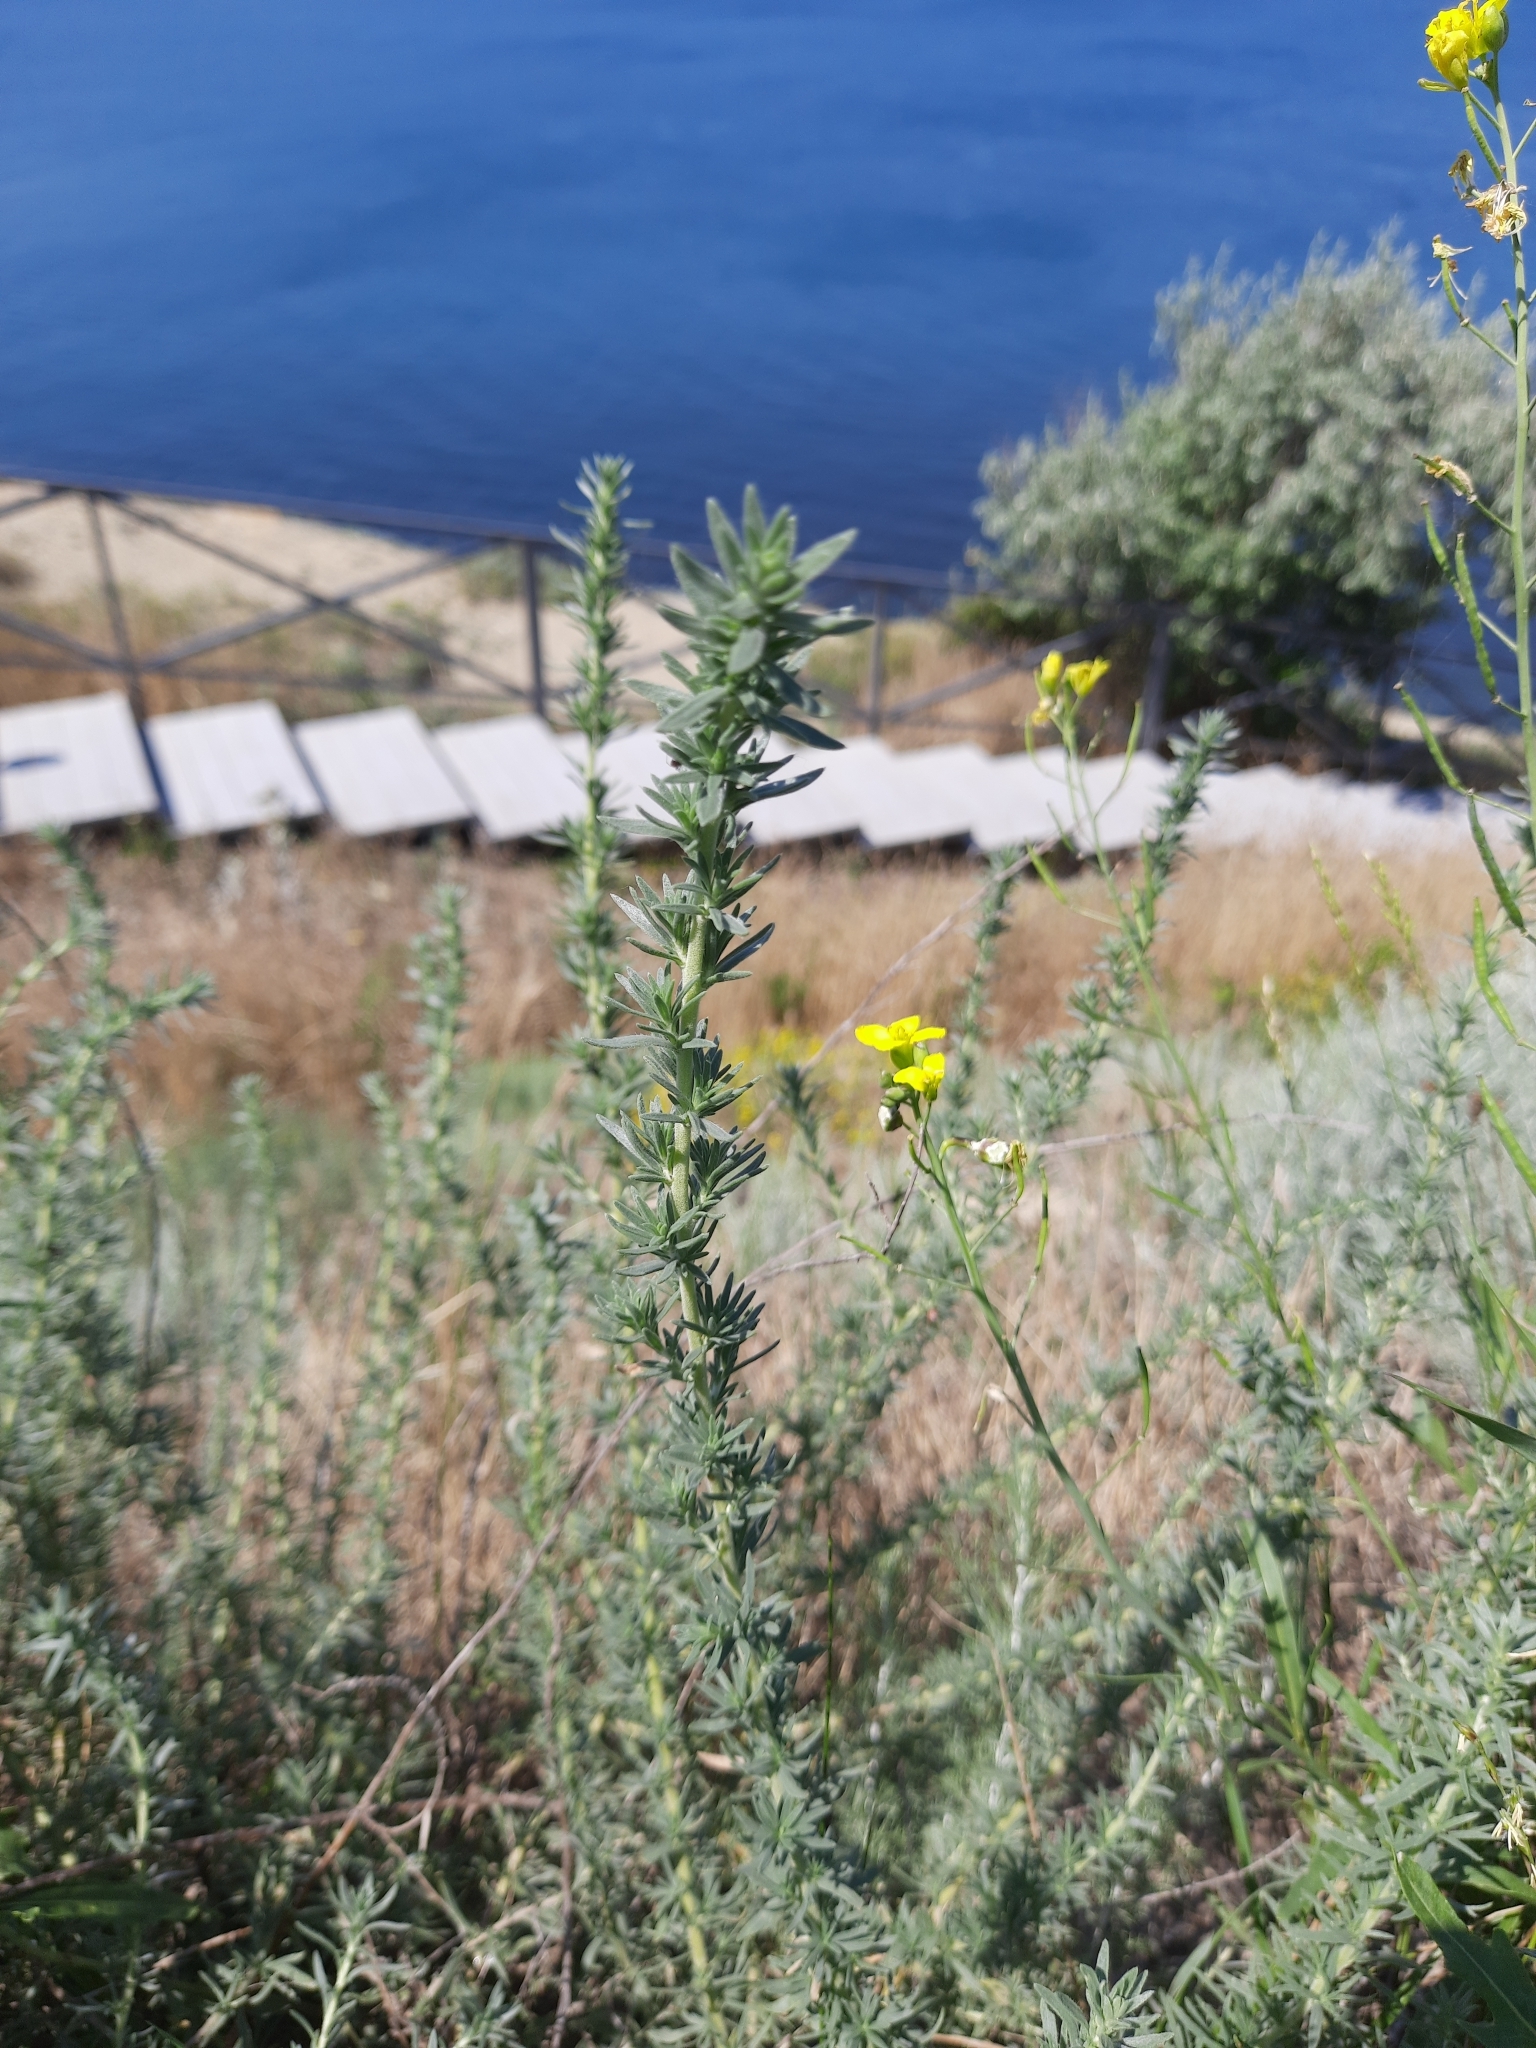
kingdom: Plantae
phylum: Tracheophyta
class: Magnoliopsida
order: Caryophyllales
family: Amaranthaceae
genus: Bassia
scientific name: Bassia prostrata
